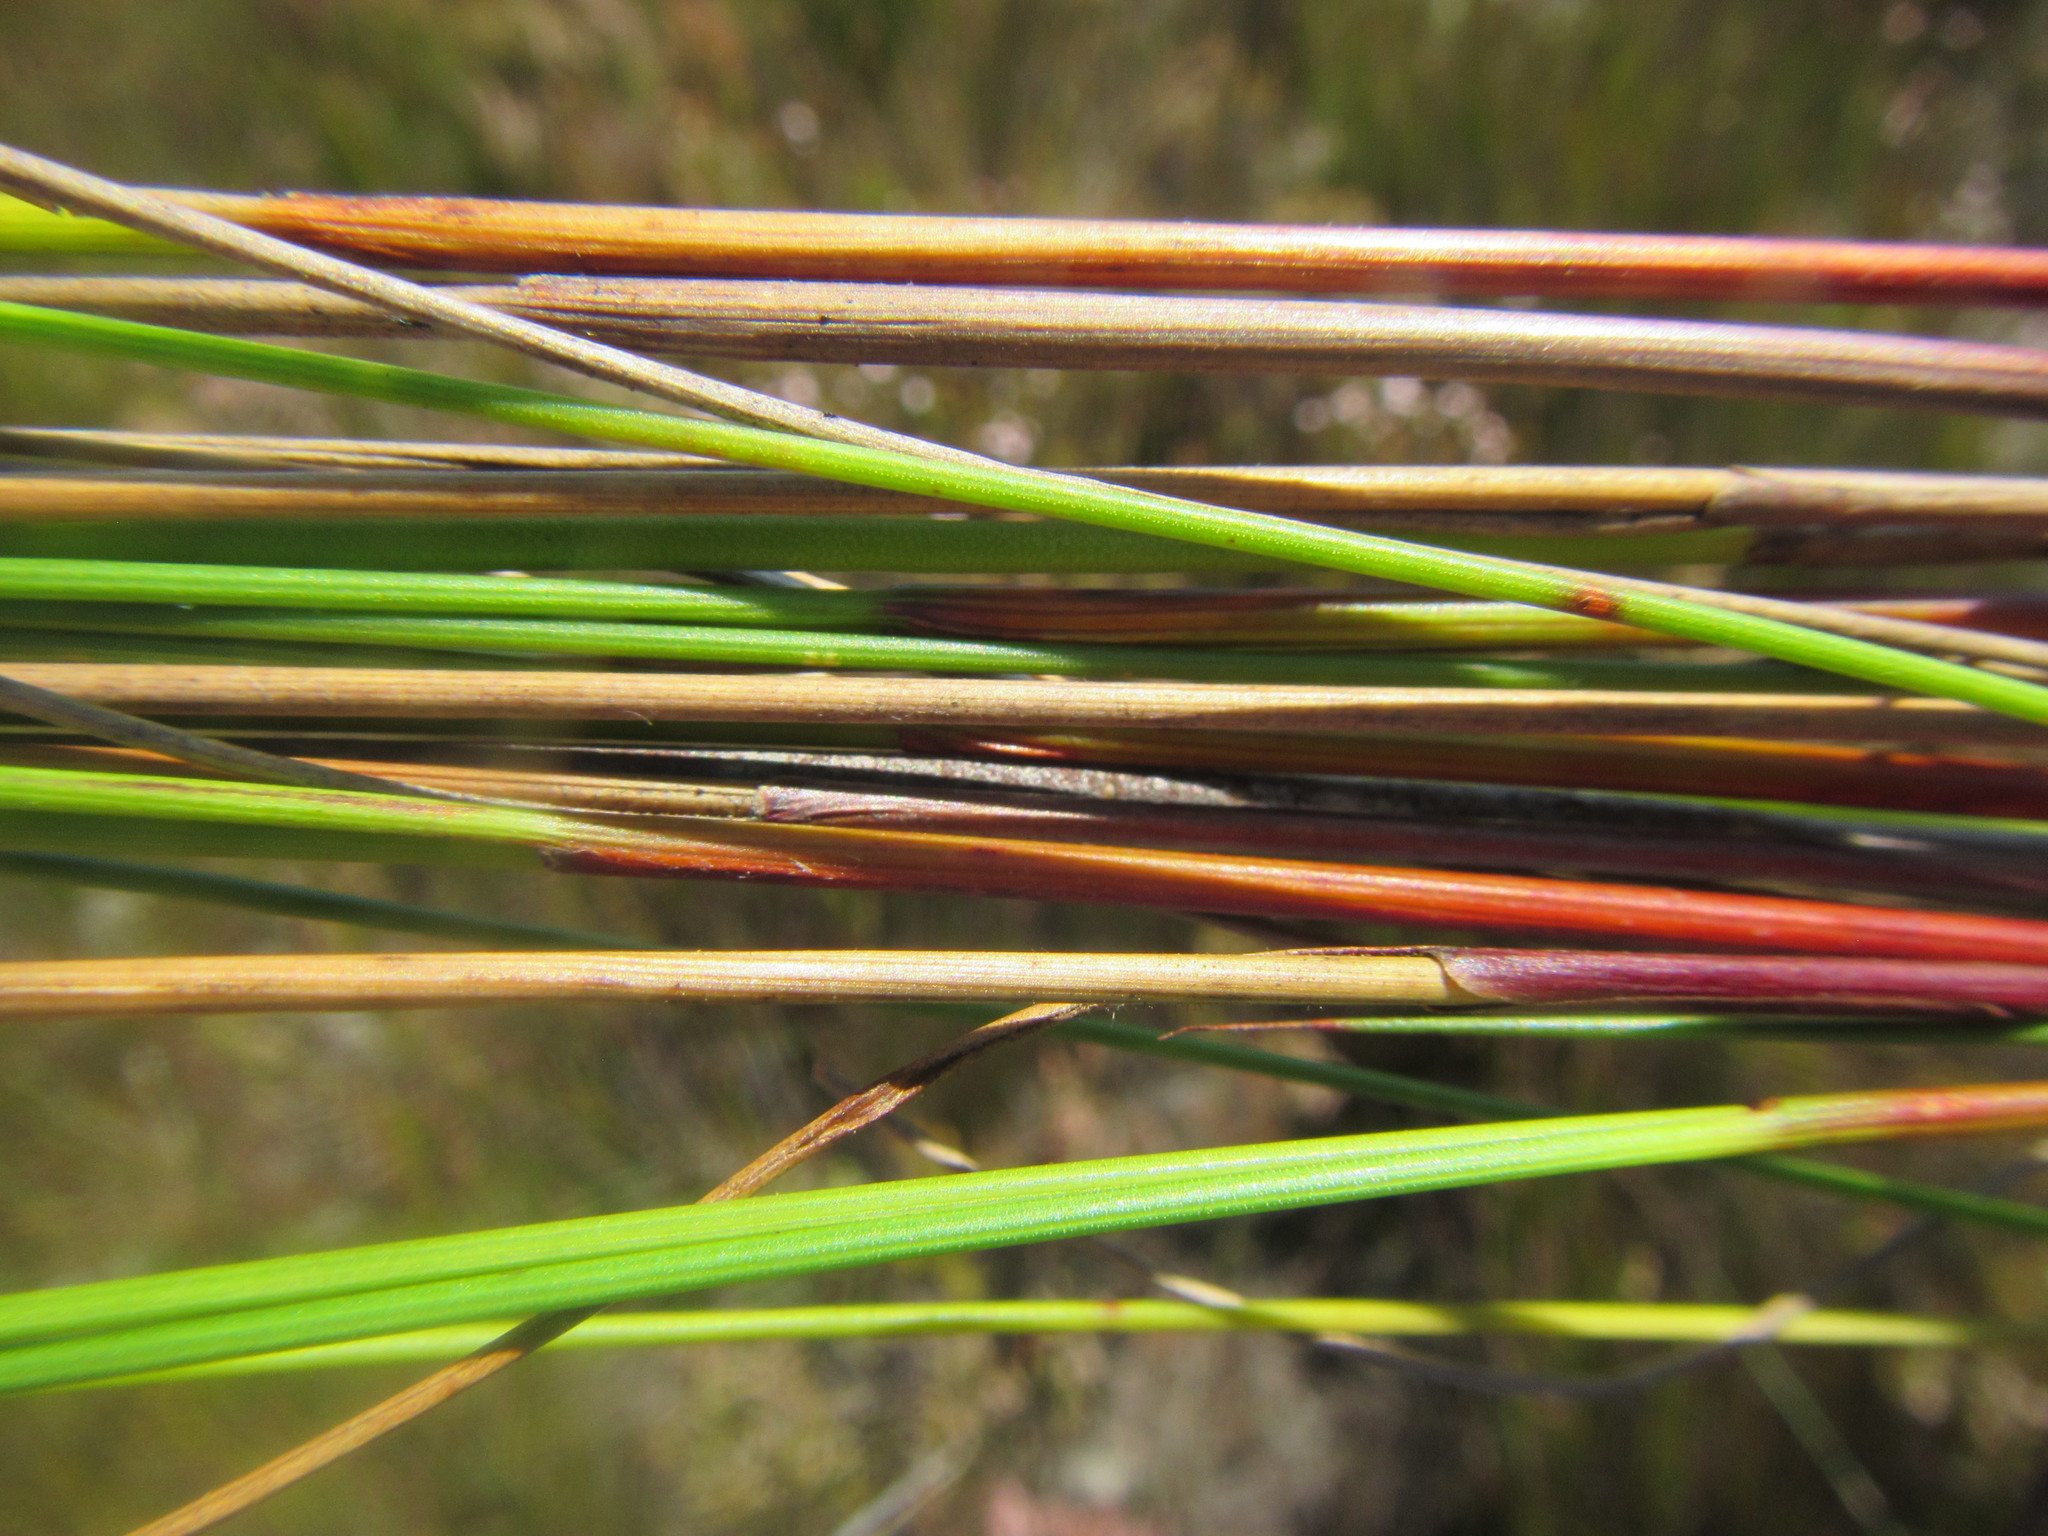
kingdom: Plantae
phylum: Tracheophyta
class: Liliopsida
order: Poales
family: Cyperaceae
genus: Schoenus
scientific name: Schoenus compactus
